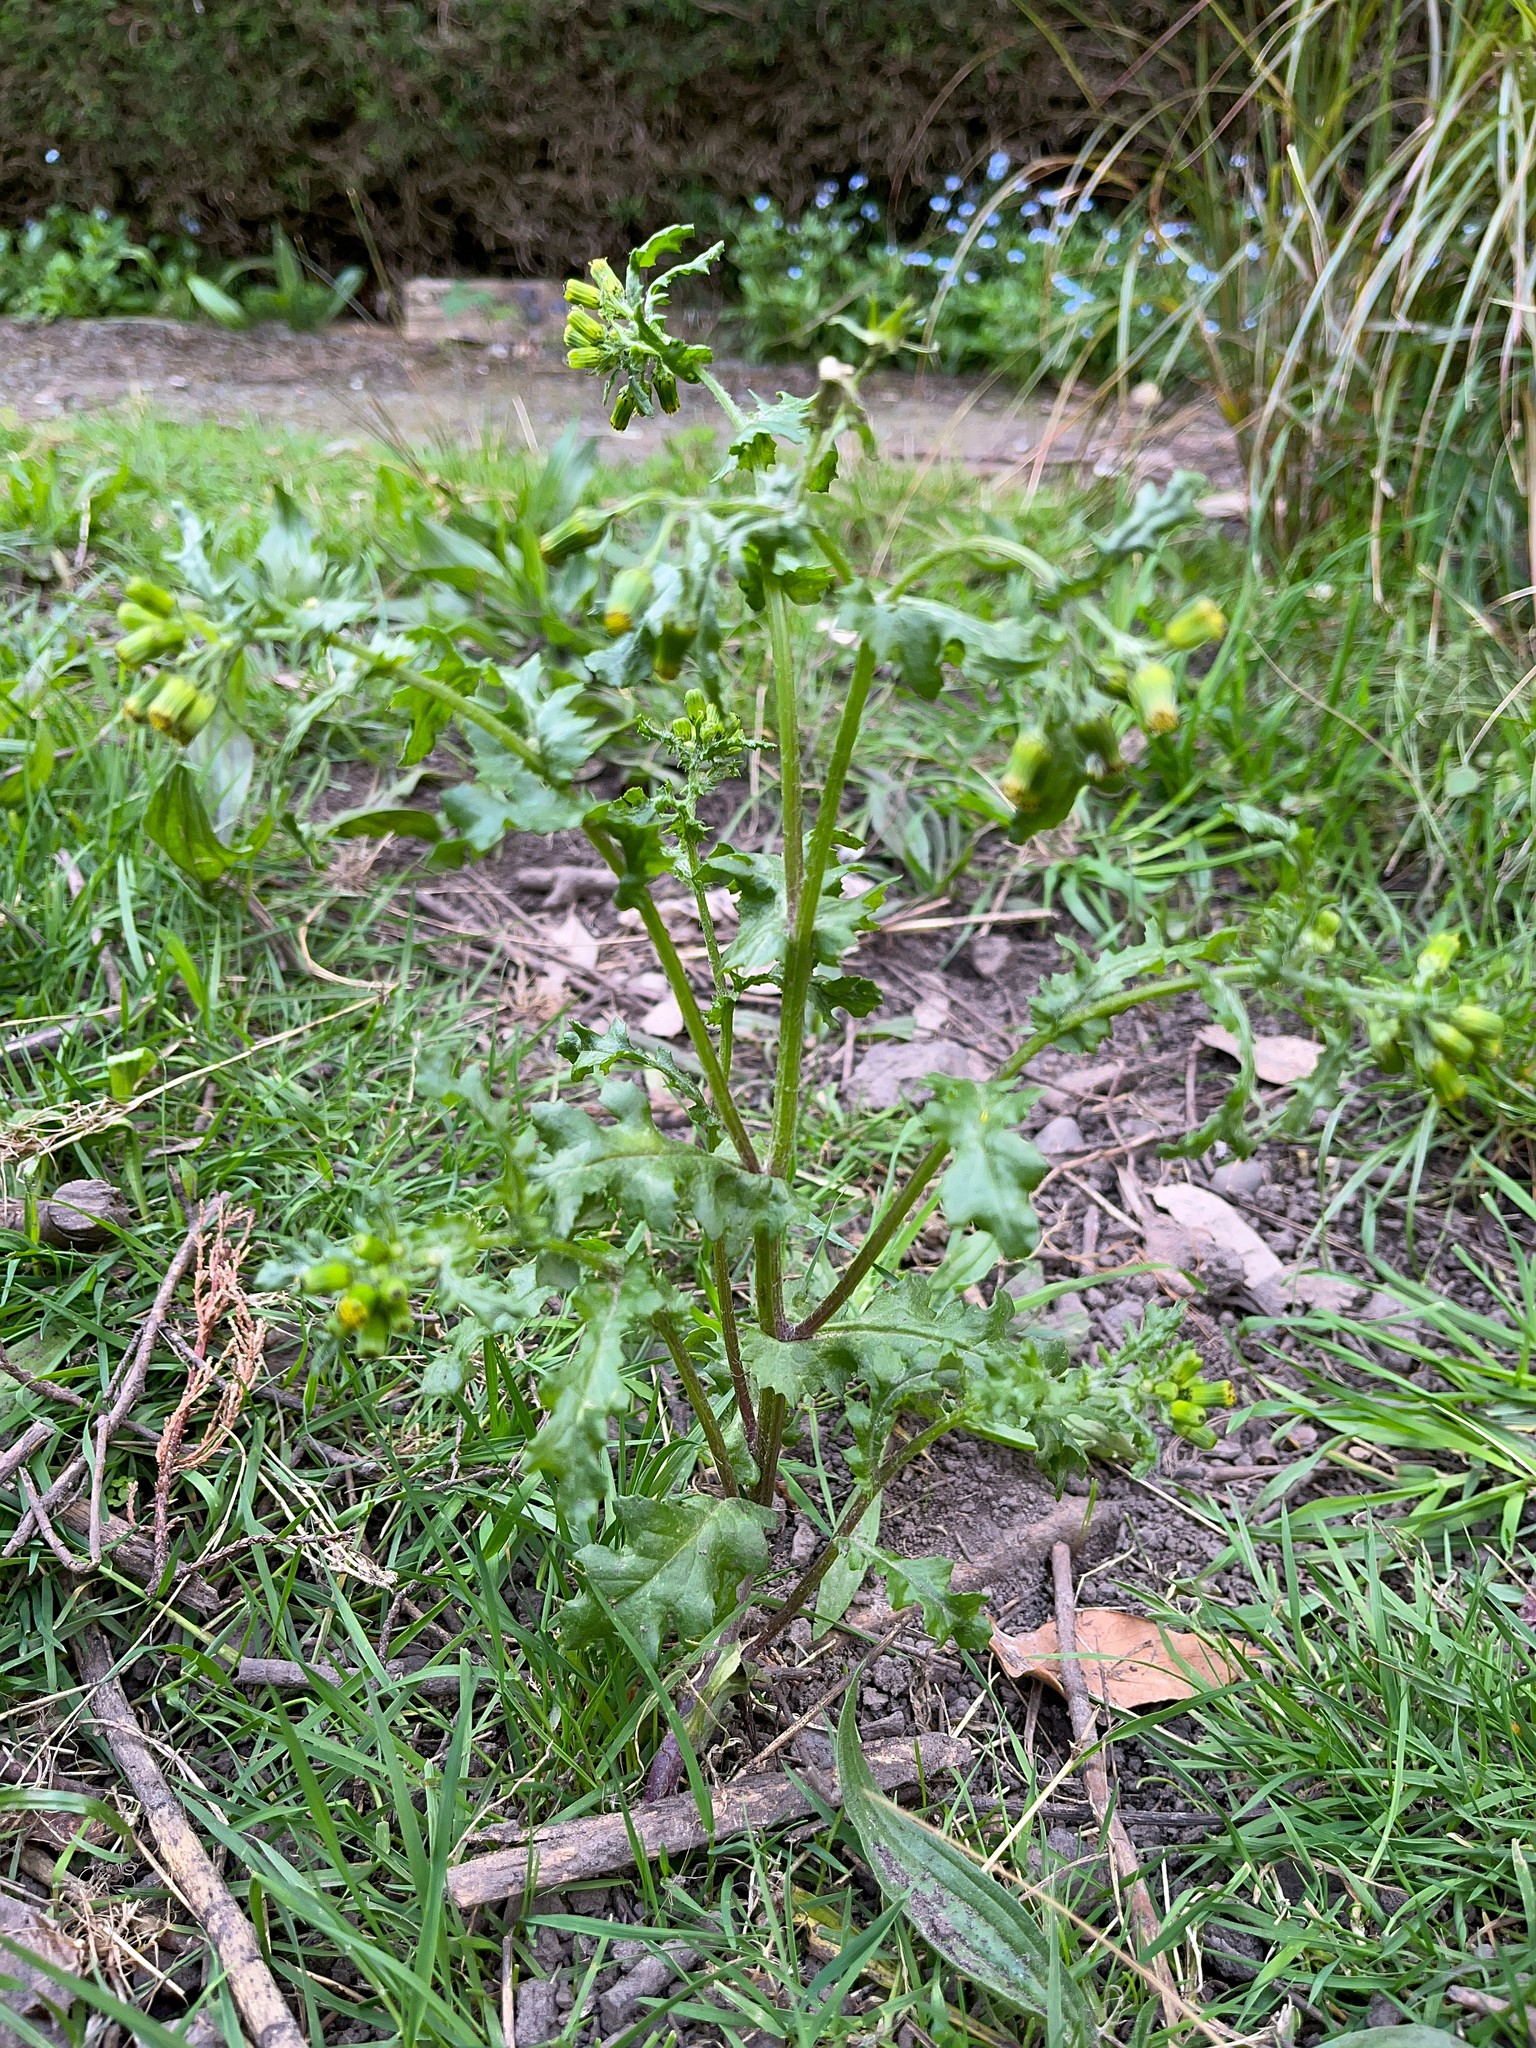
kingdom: Plantae
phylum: Tracheophyta
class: Magnoliopsida
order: Asterales
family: Asteraceae
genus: Senecio
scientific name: Senecio vulgaris
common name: Old-man-in-the-spring
